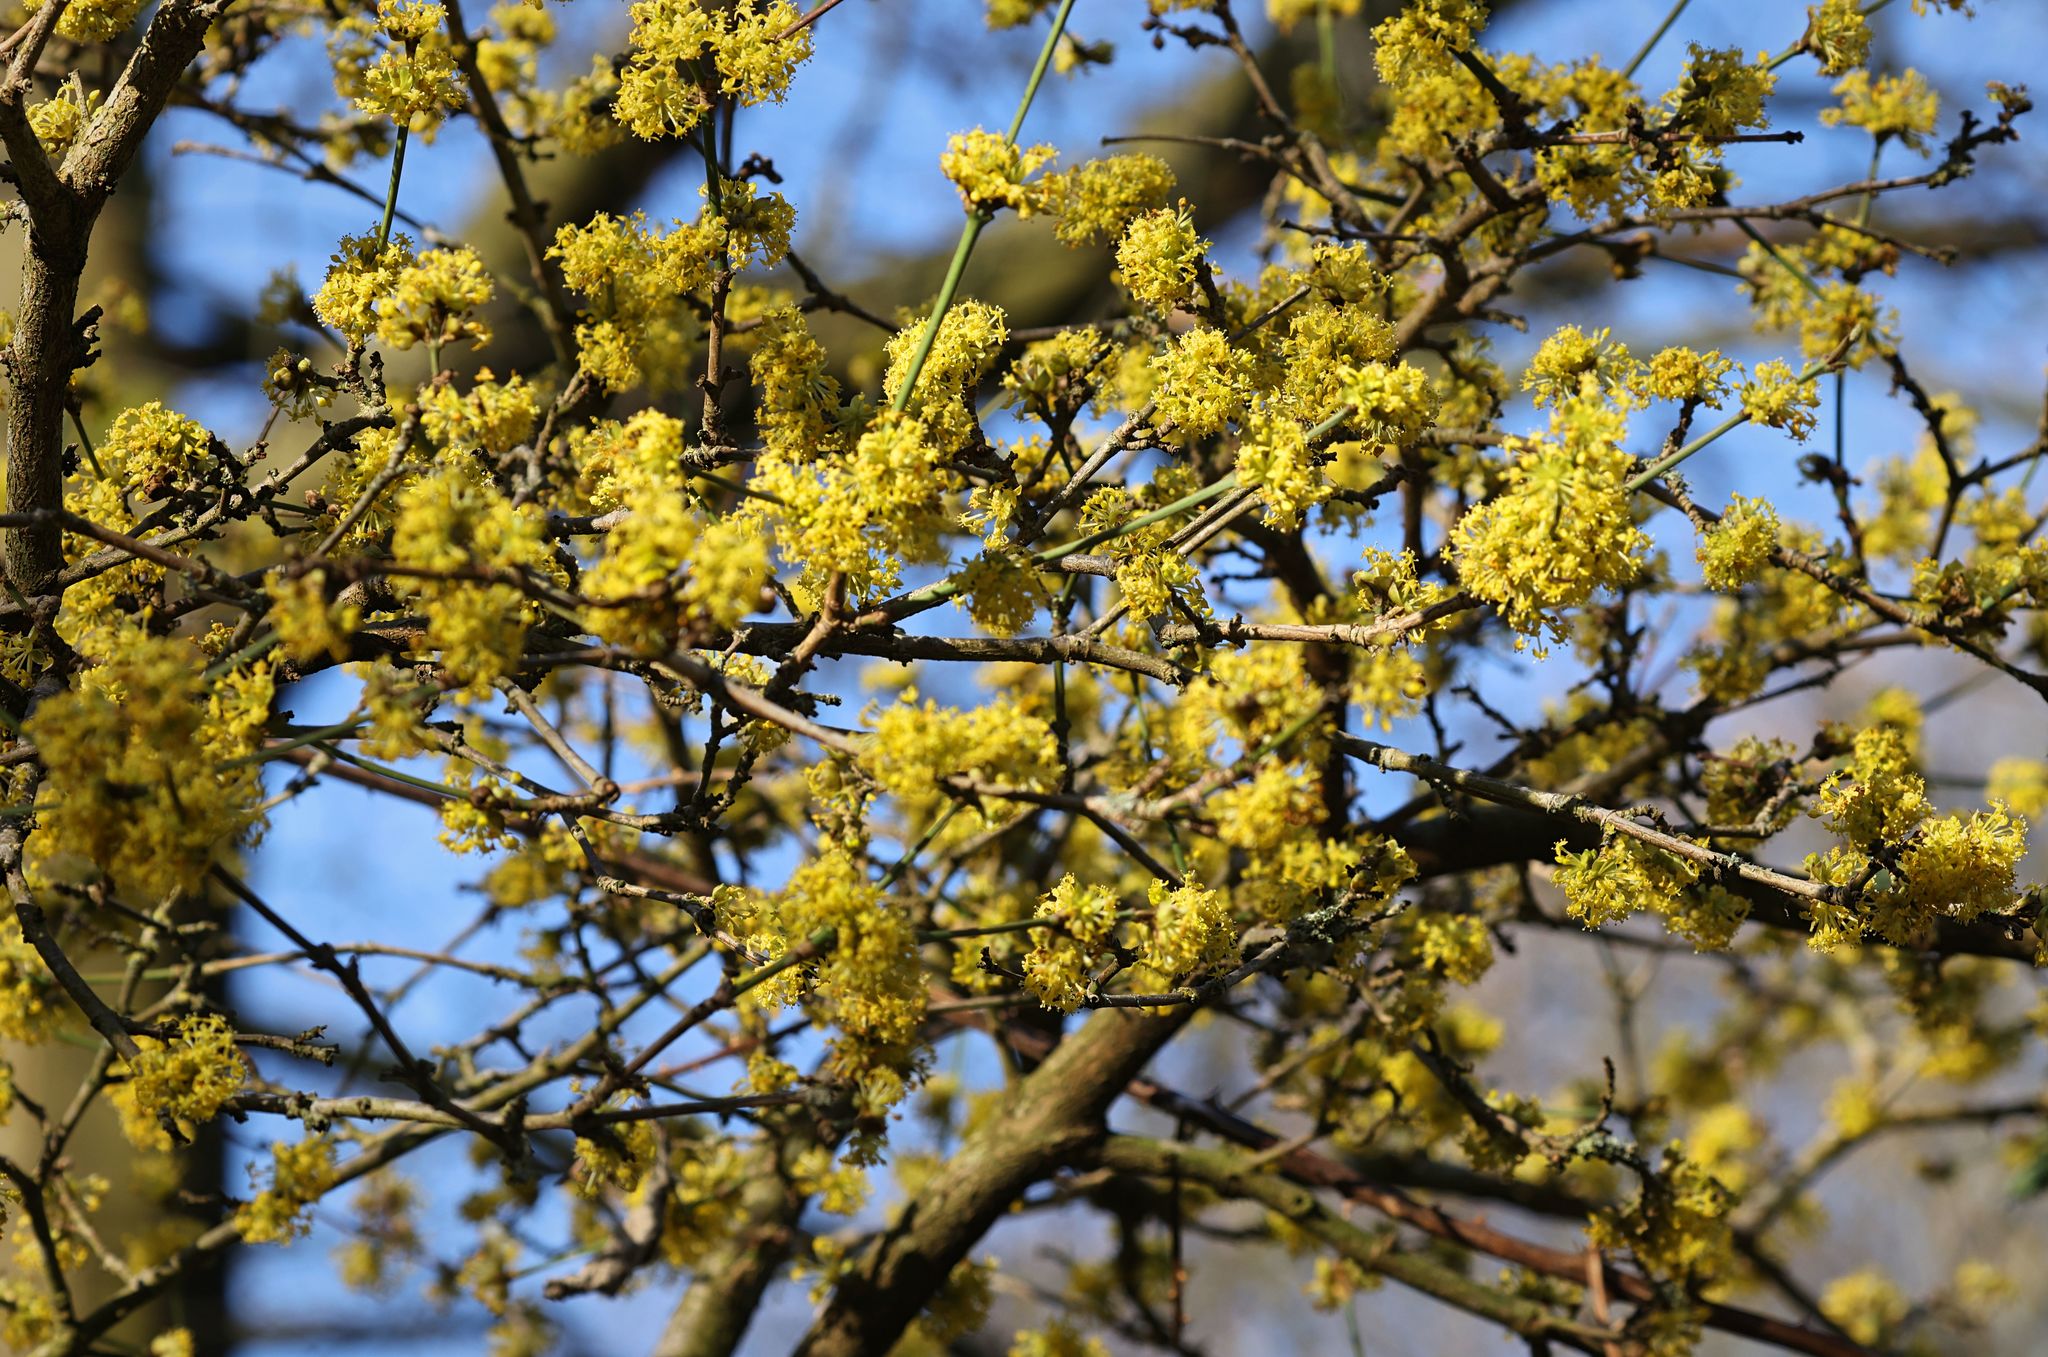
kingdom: Plantae
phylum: Tracheophyta
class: Magnoliopsida
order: Cornales
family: Cornaceae
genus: Cornus
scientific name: Cornus mas
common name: Cornelian-cherry
